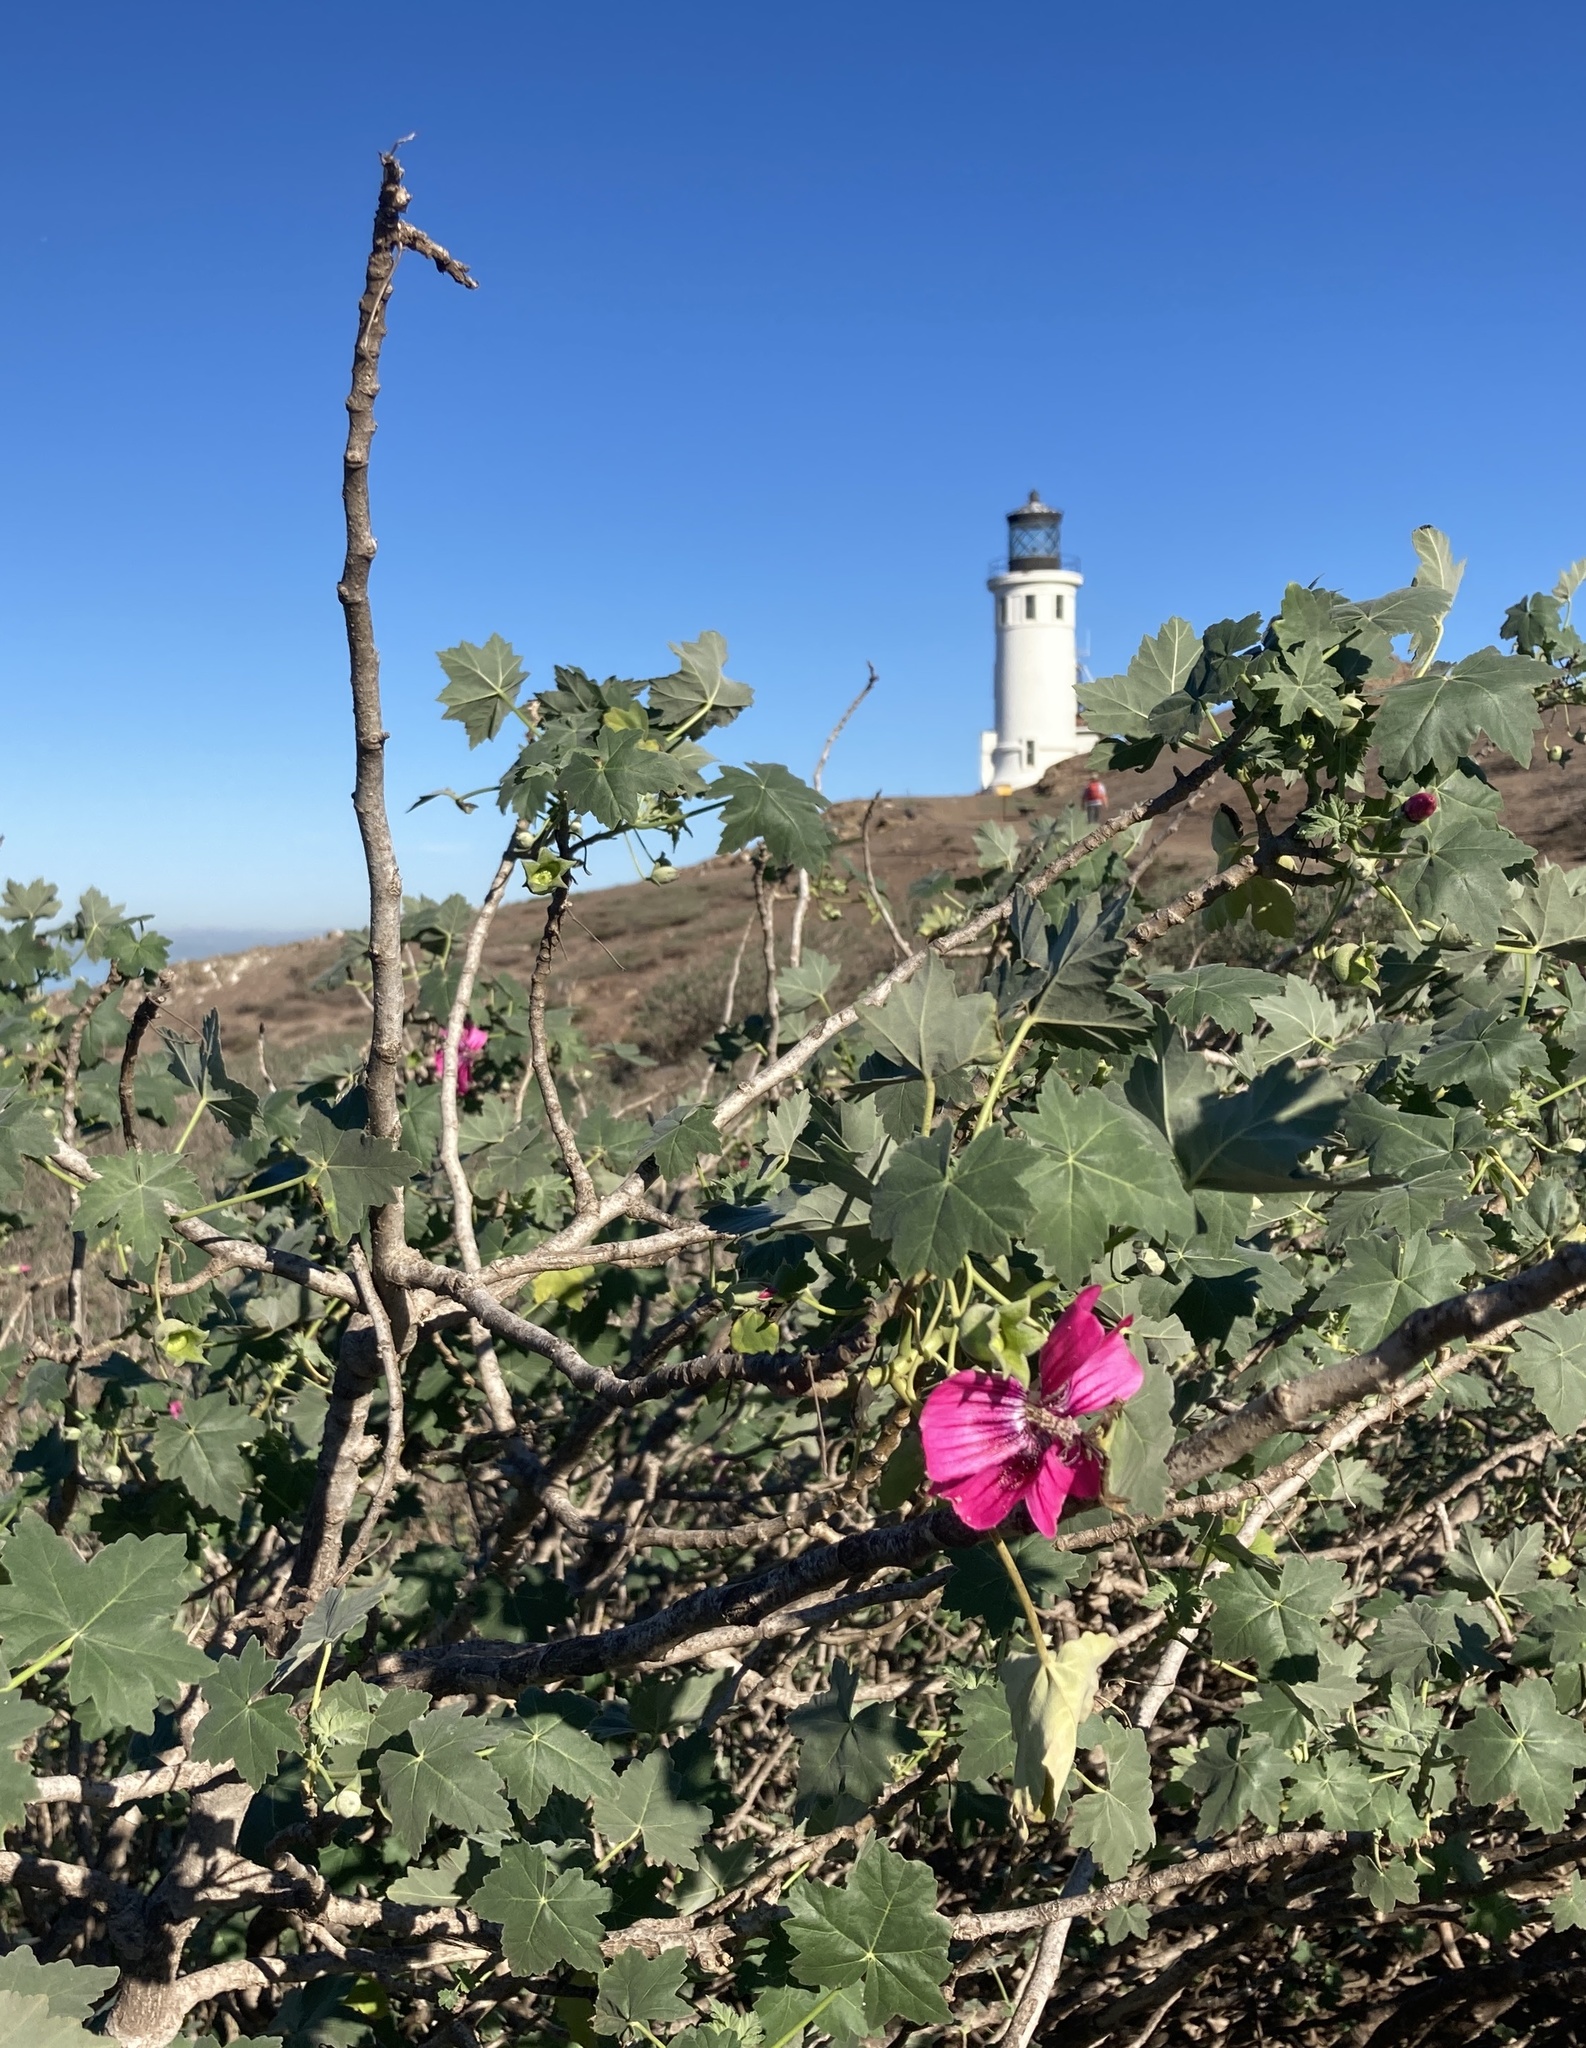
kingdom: Plantae
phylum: Tracheophyta
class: Magnoliopsida
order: Malvales
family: Malvaceae
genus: Malva
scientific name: Malva assurgentiflora
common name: Island mallow
